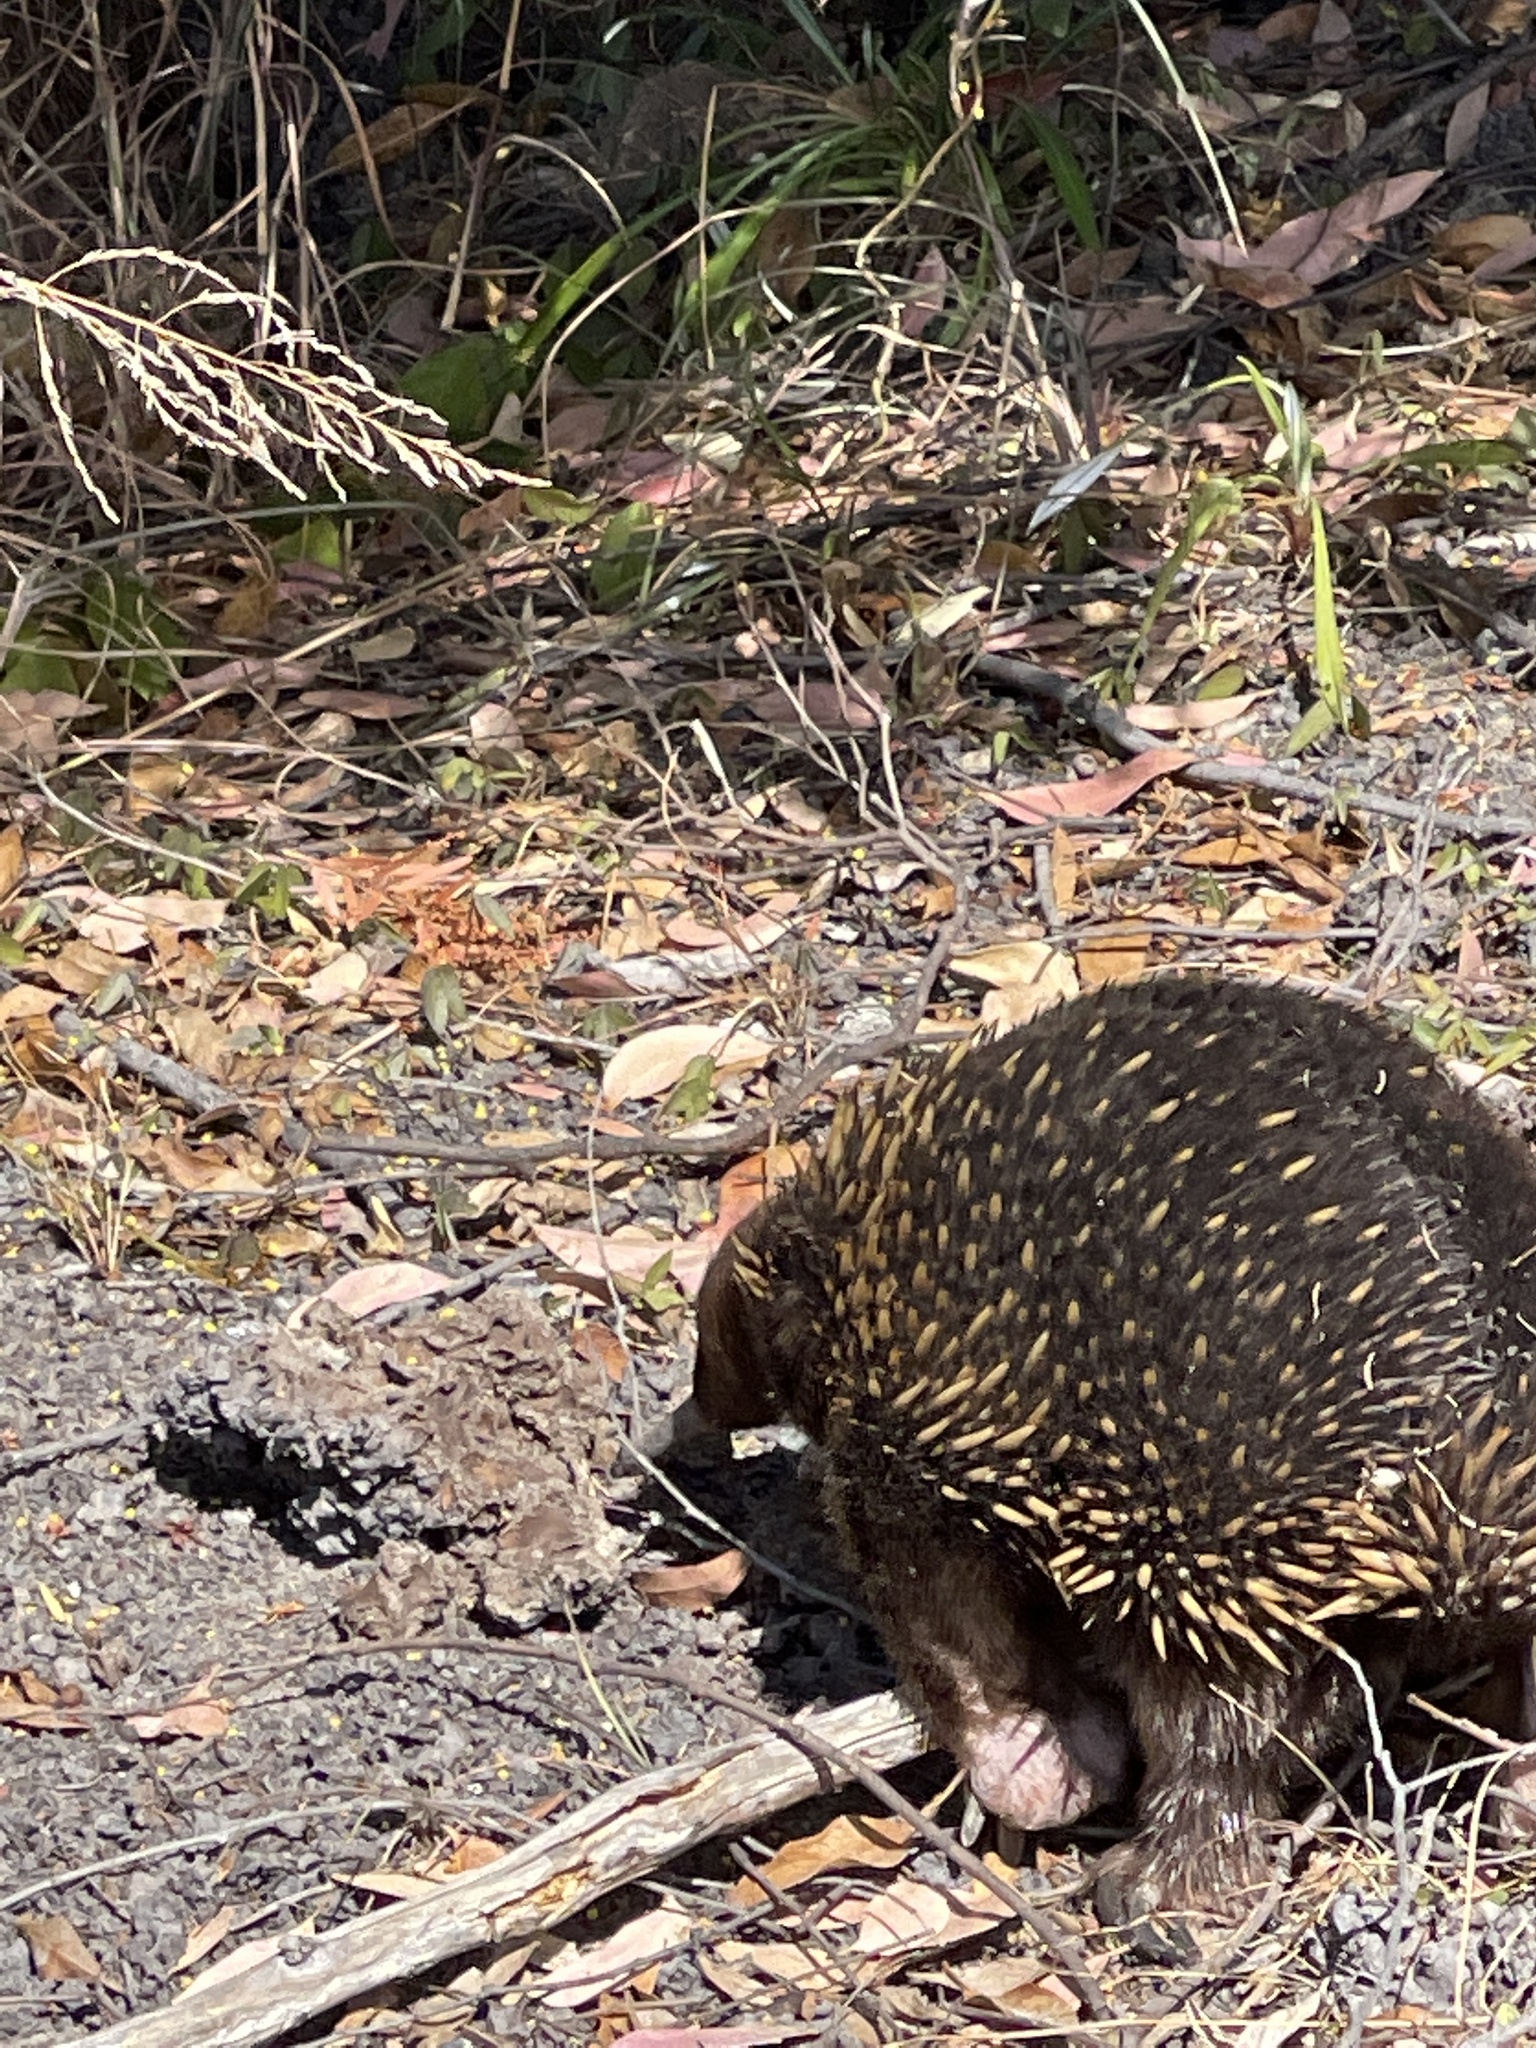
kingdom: Animalia
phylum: Chordata
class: Mammalia
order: Monotremata
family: Tachyglossidae
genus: Tachyglossus
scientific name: Tachyglossus aculeatus
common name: Short-beaked echidna
